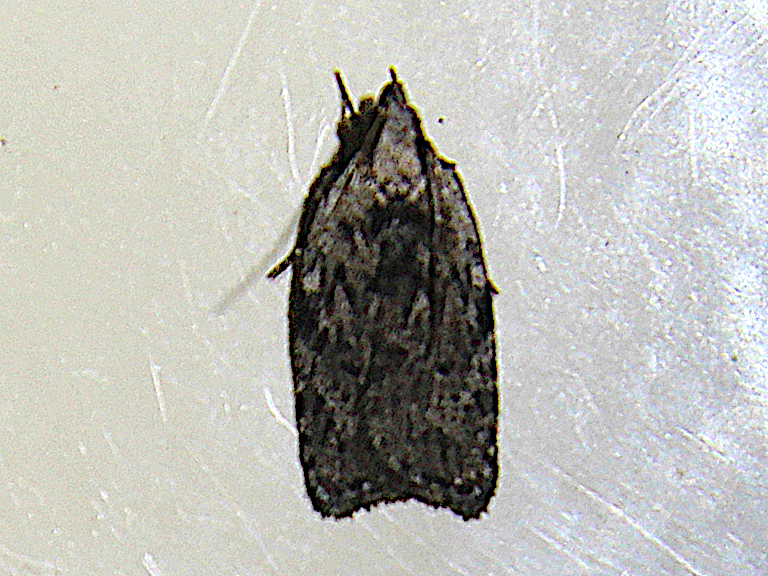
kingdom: Animalia
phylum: Arthropoda
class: Insecta
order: Lepidoptera
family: Depressariidae
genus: Phaeosaces
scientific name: Phaeosaces compsotypa
